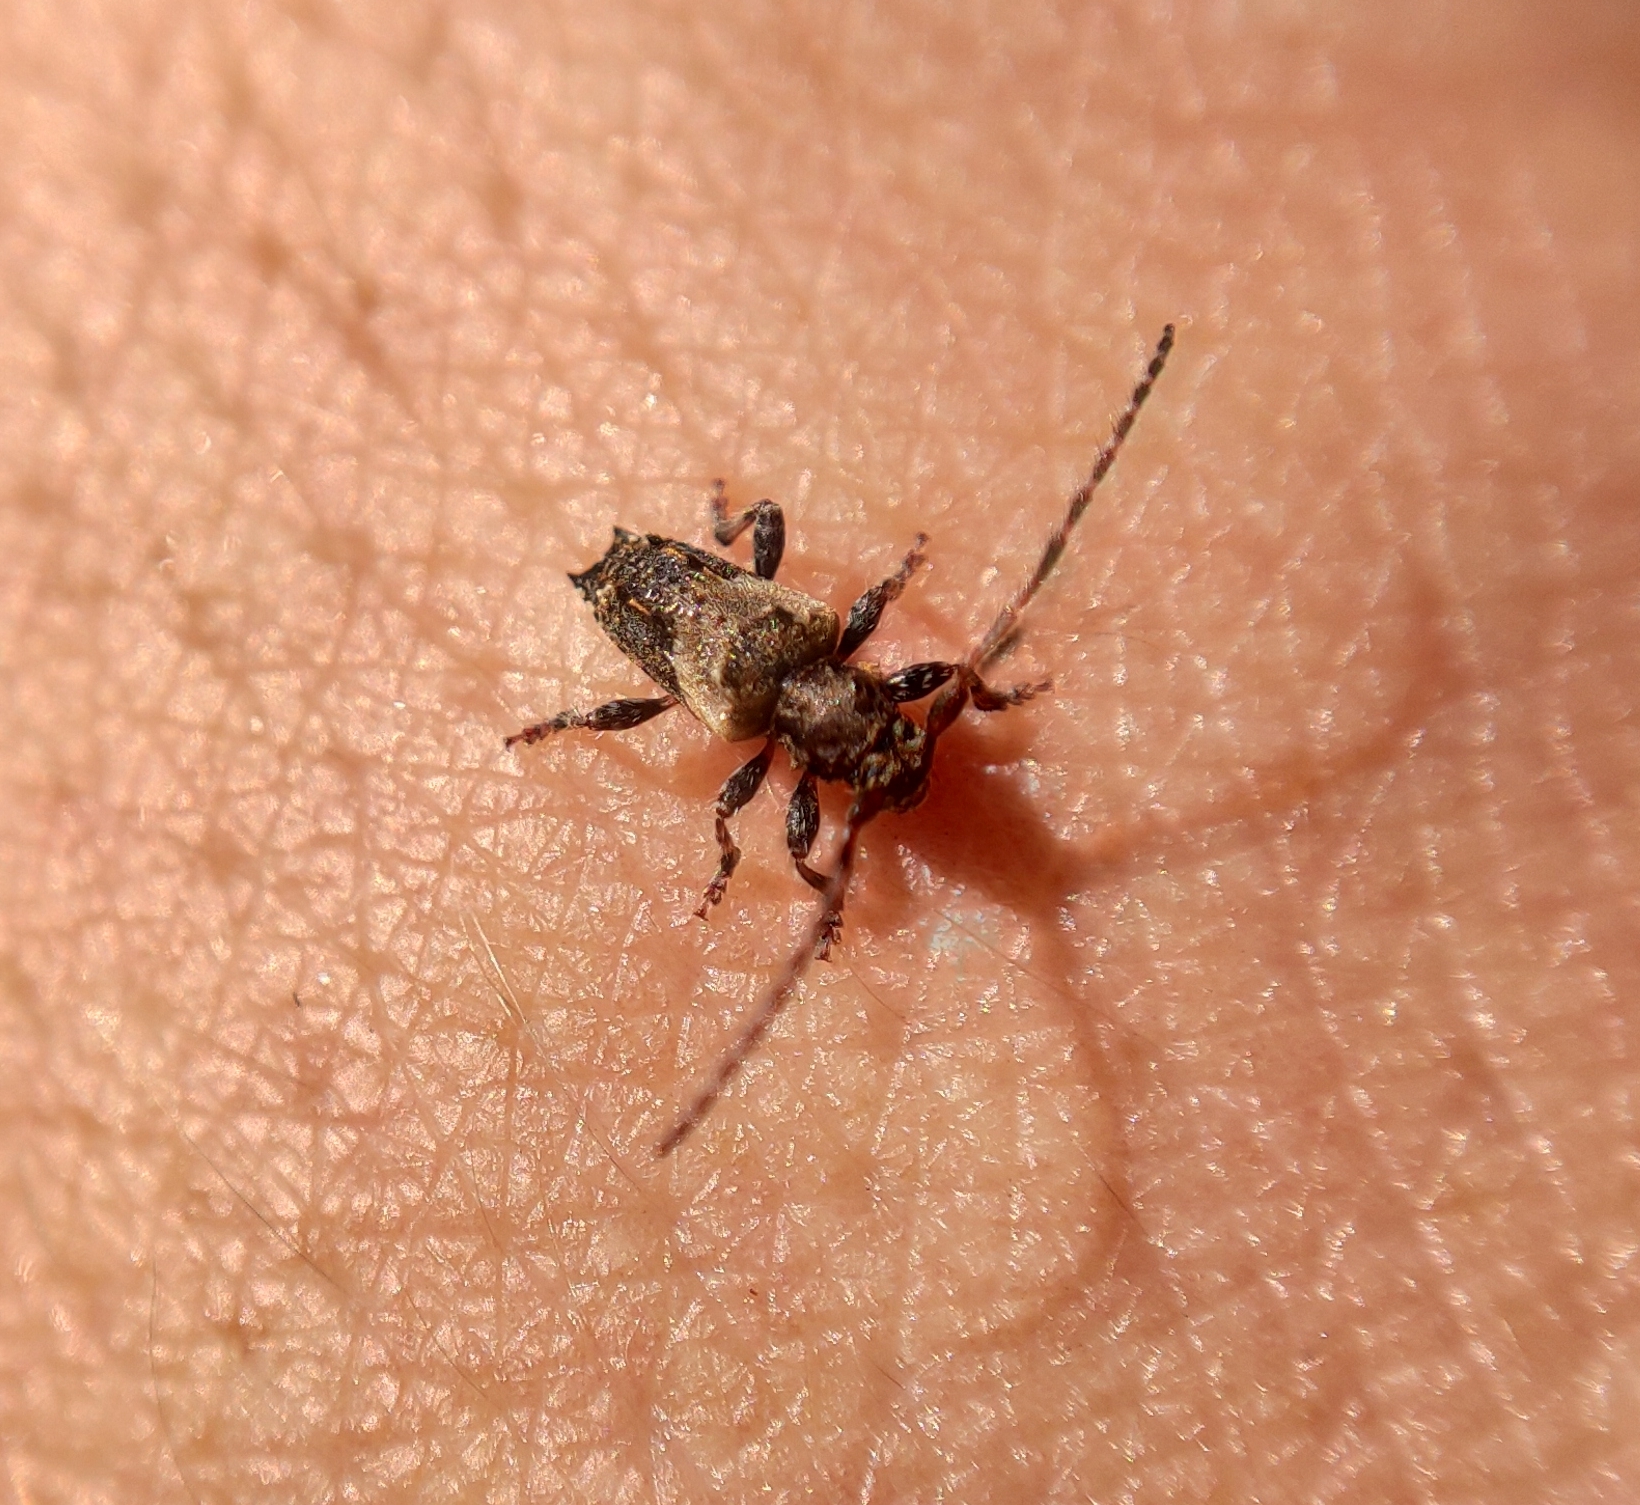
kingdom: Animalia
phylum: Arthropoda
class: Insecta
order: Coleoptera
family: Cerambycidae
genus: Pogonocherus
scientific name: Pogonocherus hispidus
